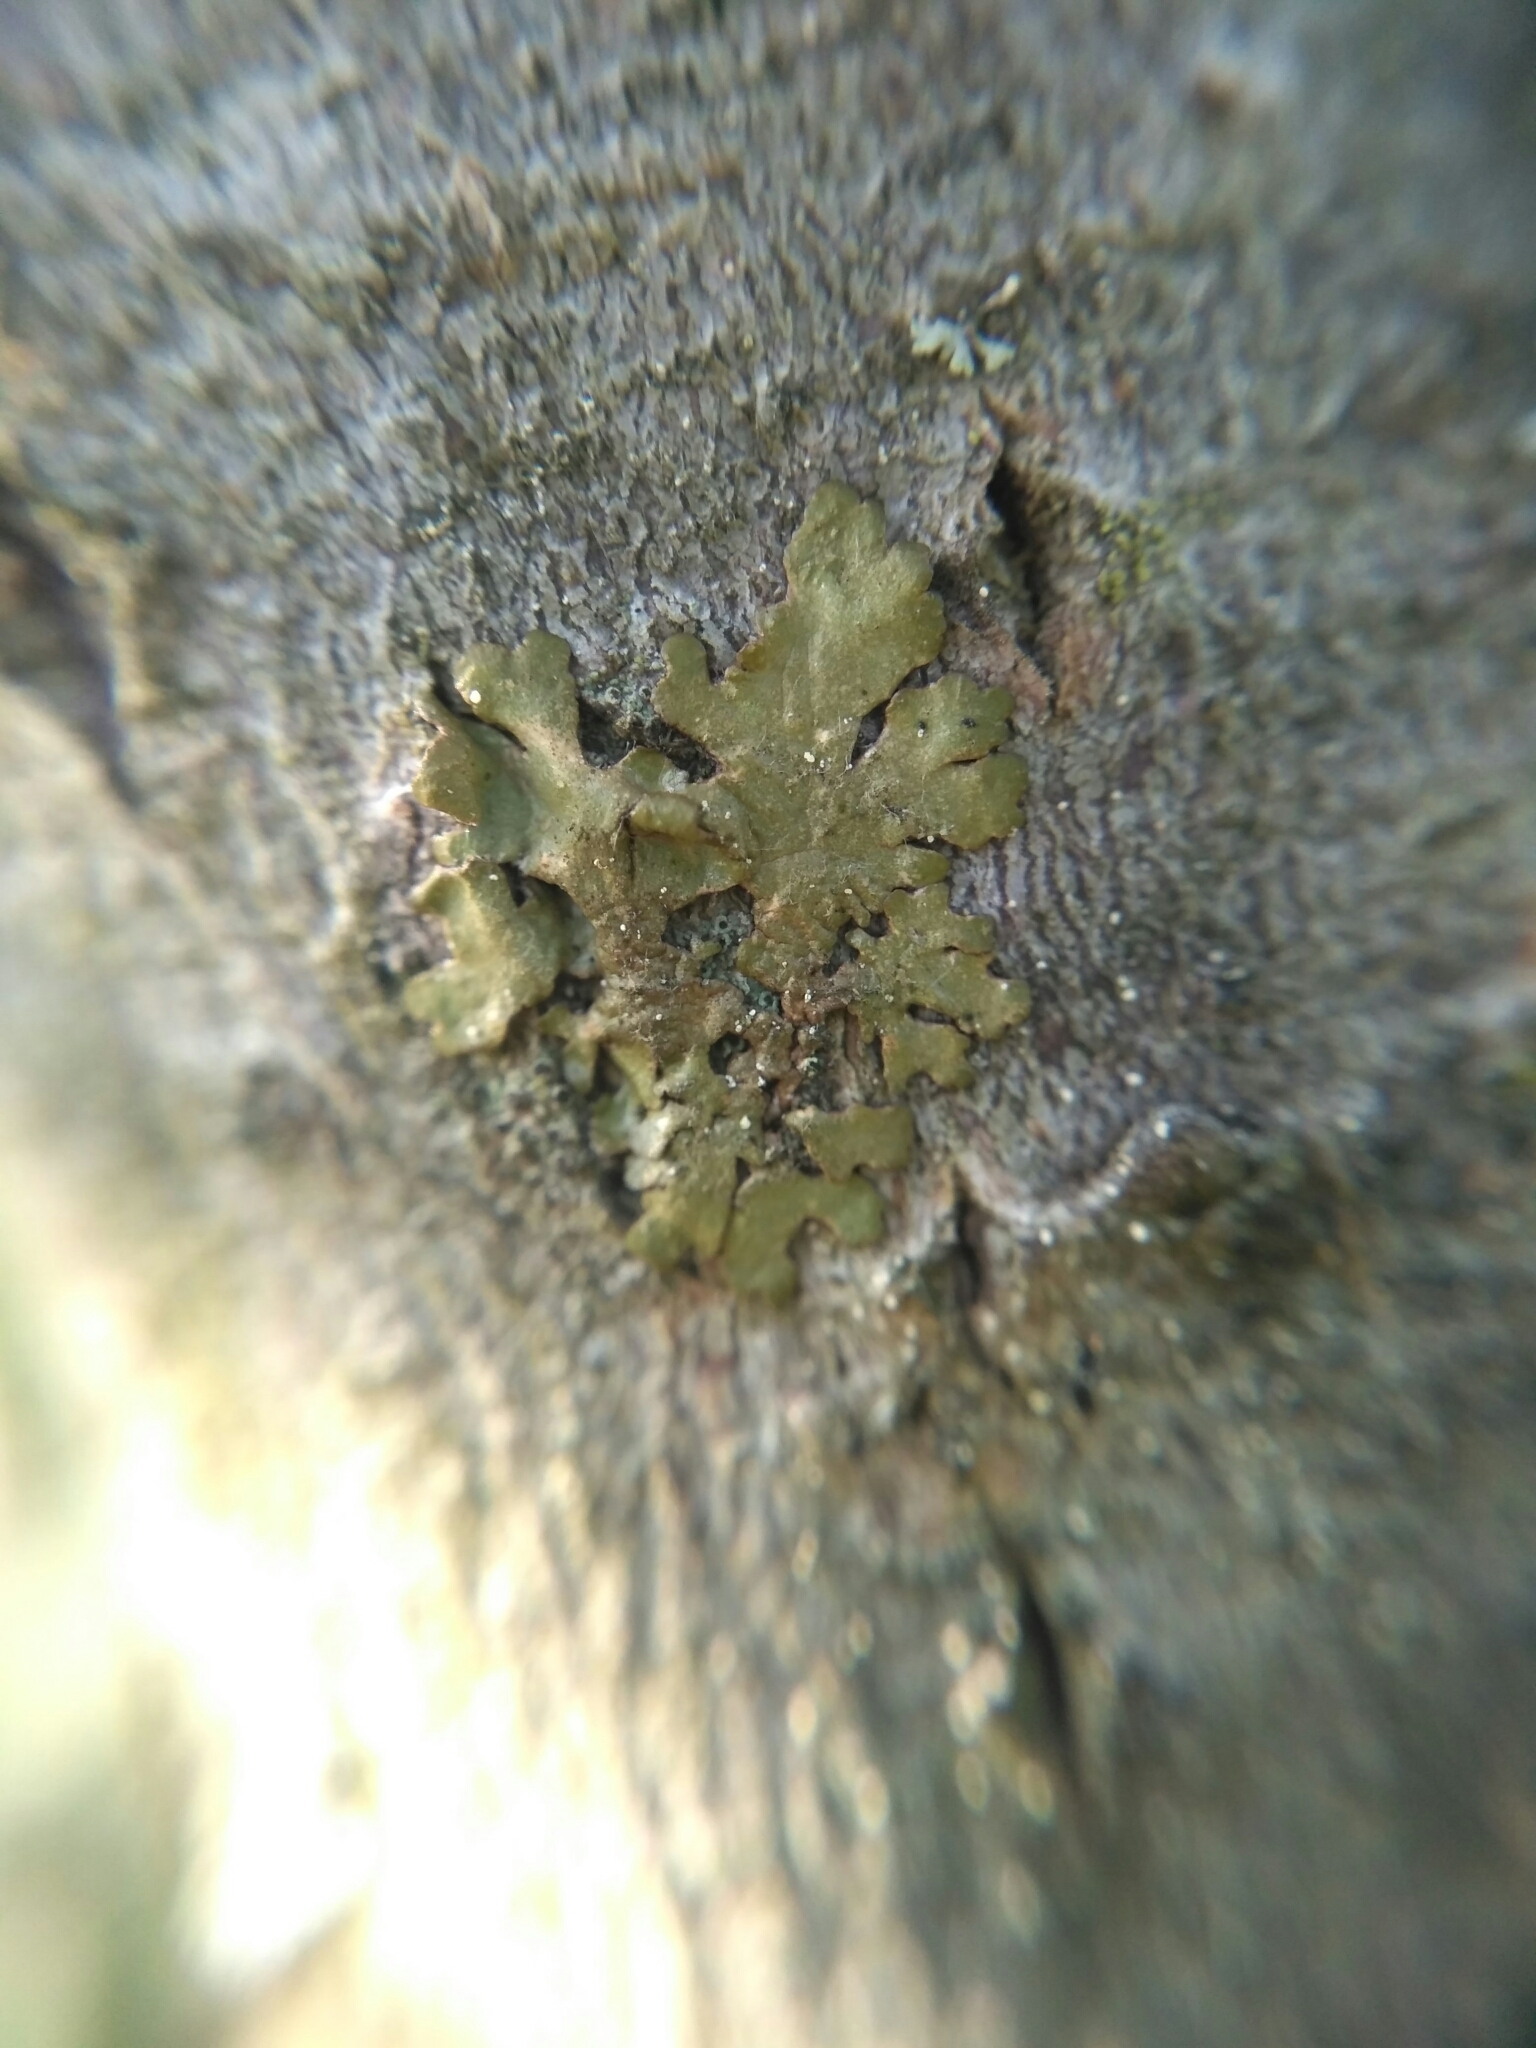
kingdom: Fungi
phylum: Ascomycota
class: Lecanoromycetes
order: Lecanorales
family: Parmeliaceae
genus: Melanelixia
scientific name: Melanelixia glabratula
